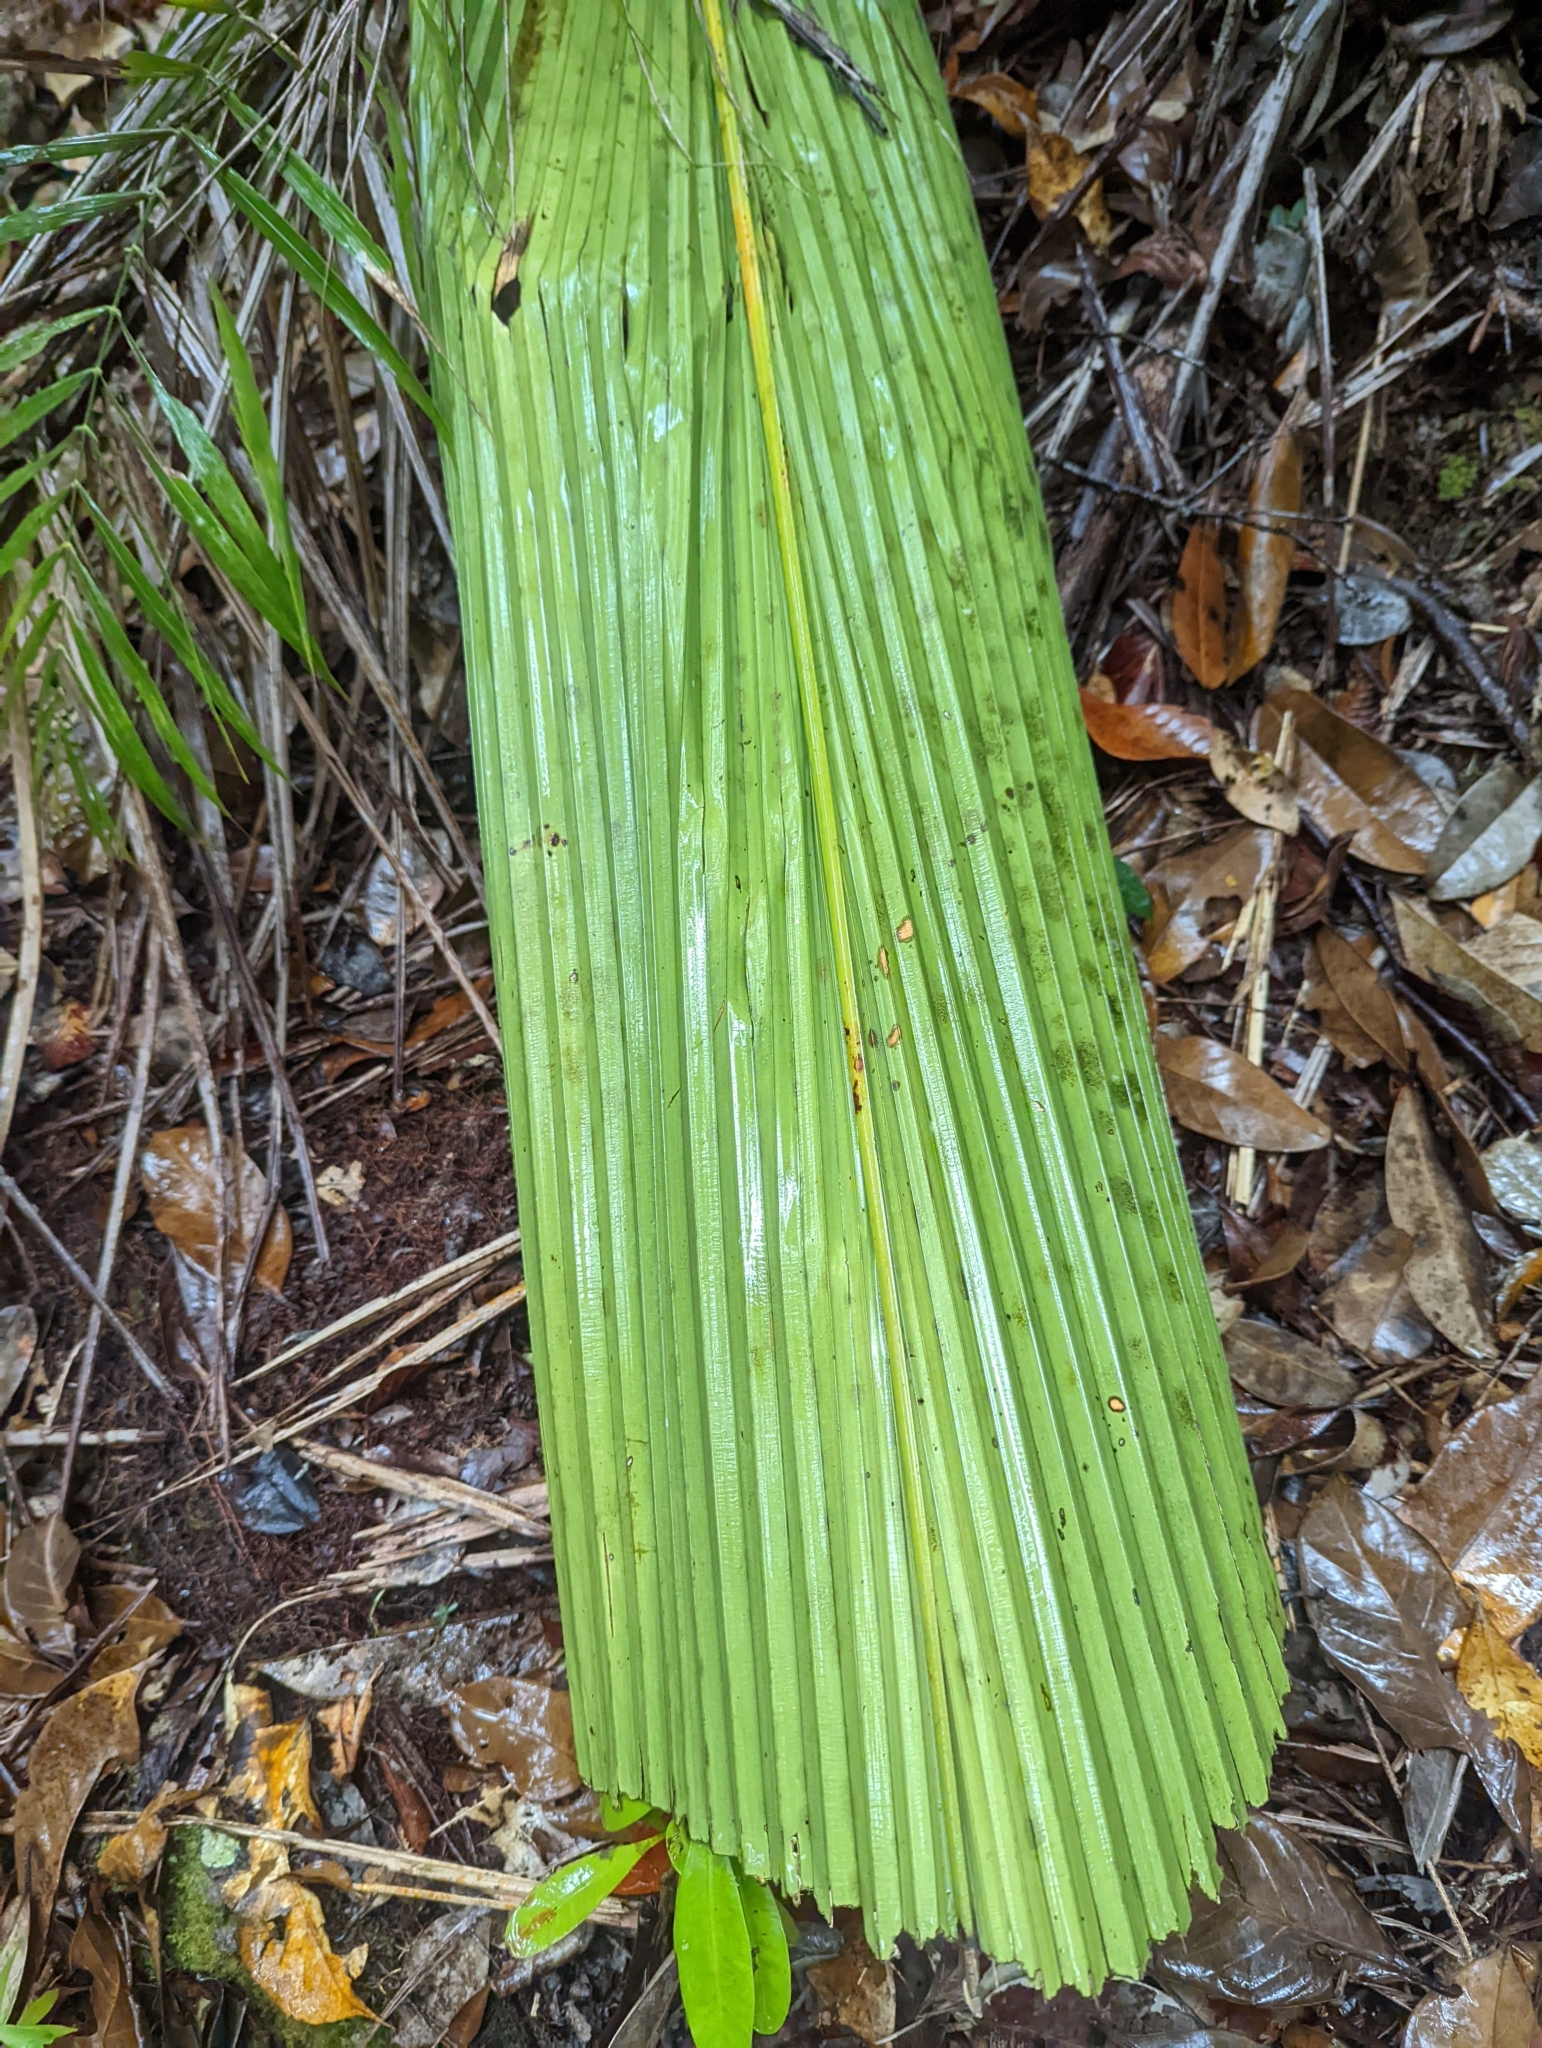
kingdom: Plantae
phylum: Tracheophyta
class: Liliopsida
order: Arecales
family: Arecaceae
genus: Johannesteijsmannia
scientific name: Johannesteijsmannia altifrons
